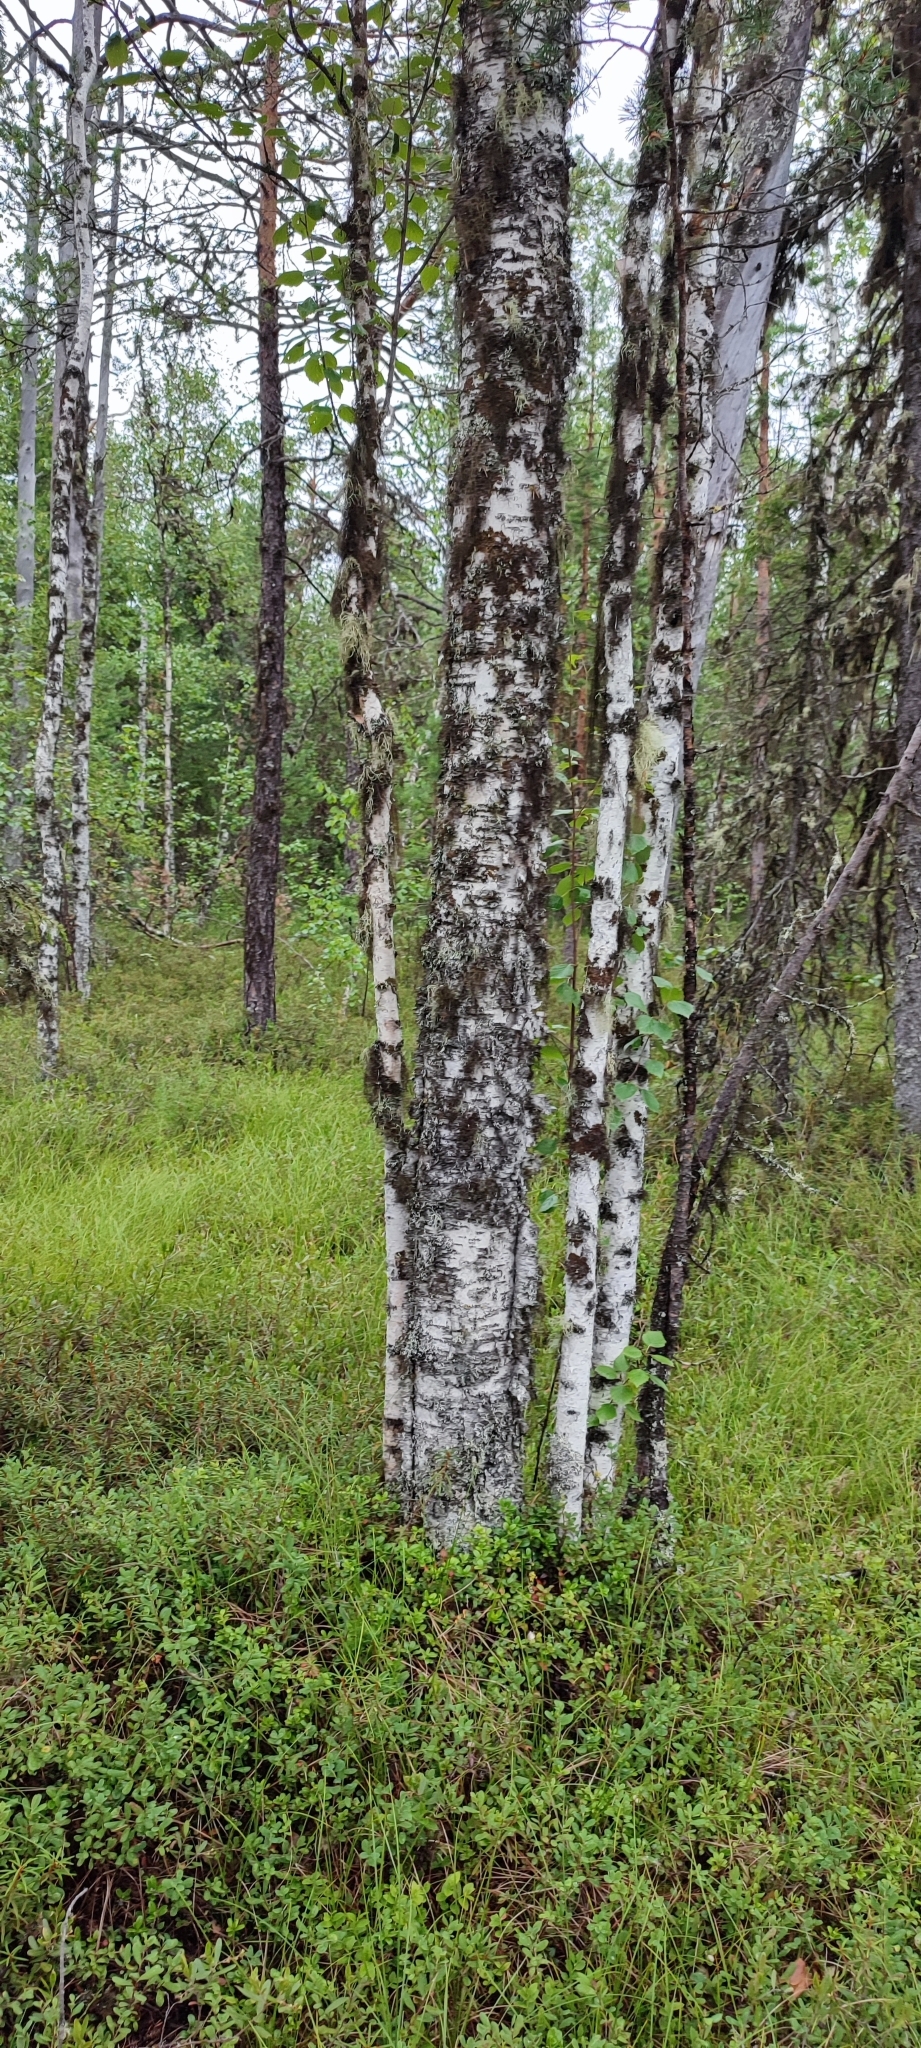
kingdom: Plantae
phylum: Tracheophyta
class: Magnoliopsida
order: Fagales
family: Betulaceae
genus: Betula
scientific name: Betula pubescens
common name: Downy birch
